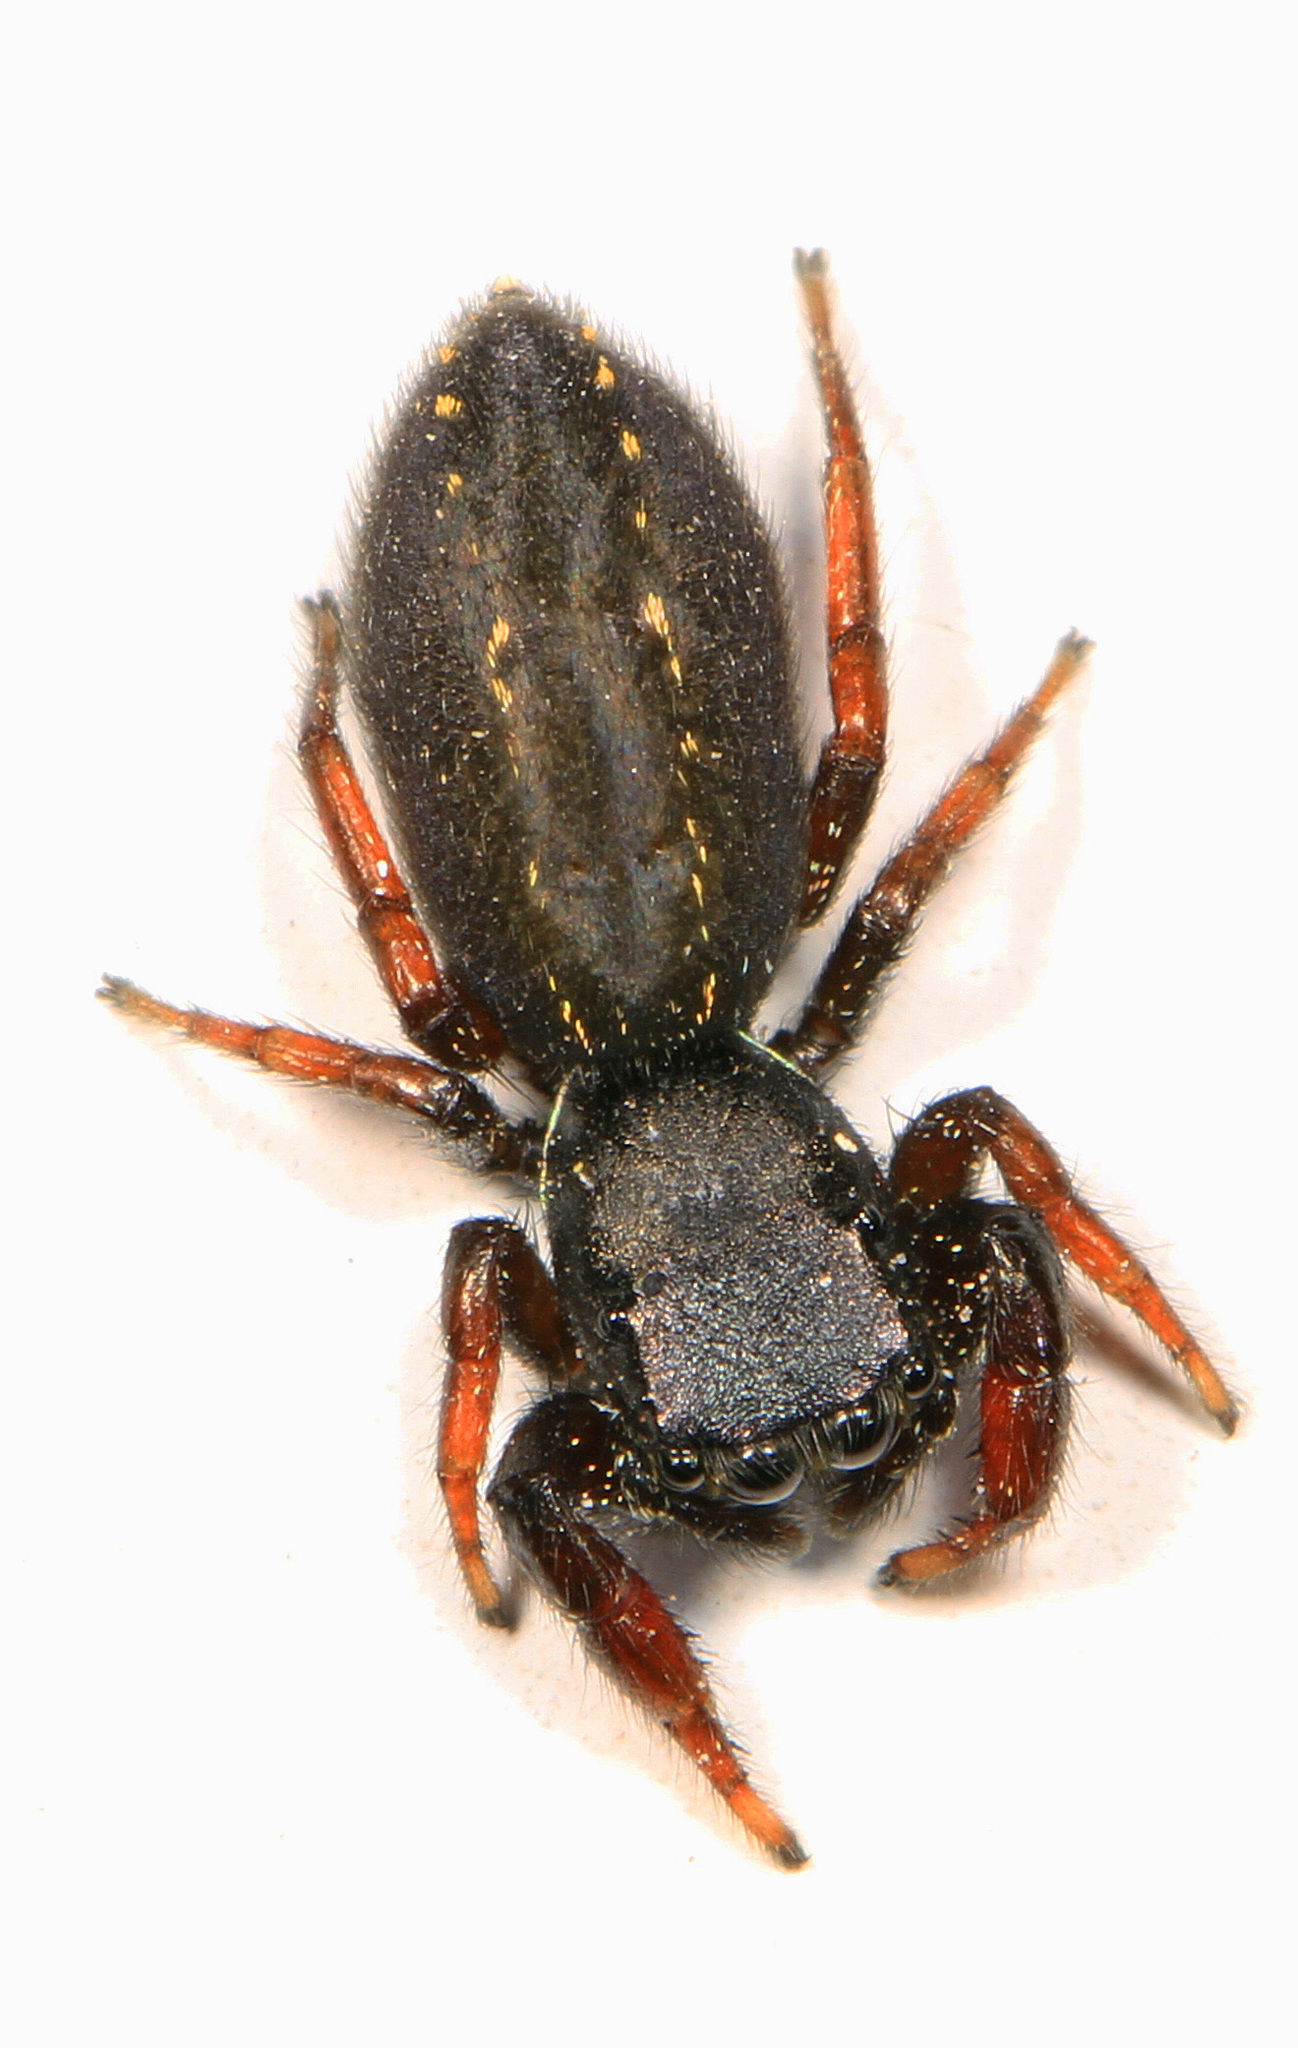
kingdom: Animalia
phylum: Arthropoda
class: Arachnida
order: Araneae
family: Salticidae
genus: Metacyrba
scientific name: Metacyrba taeniola
